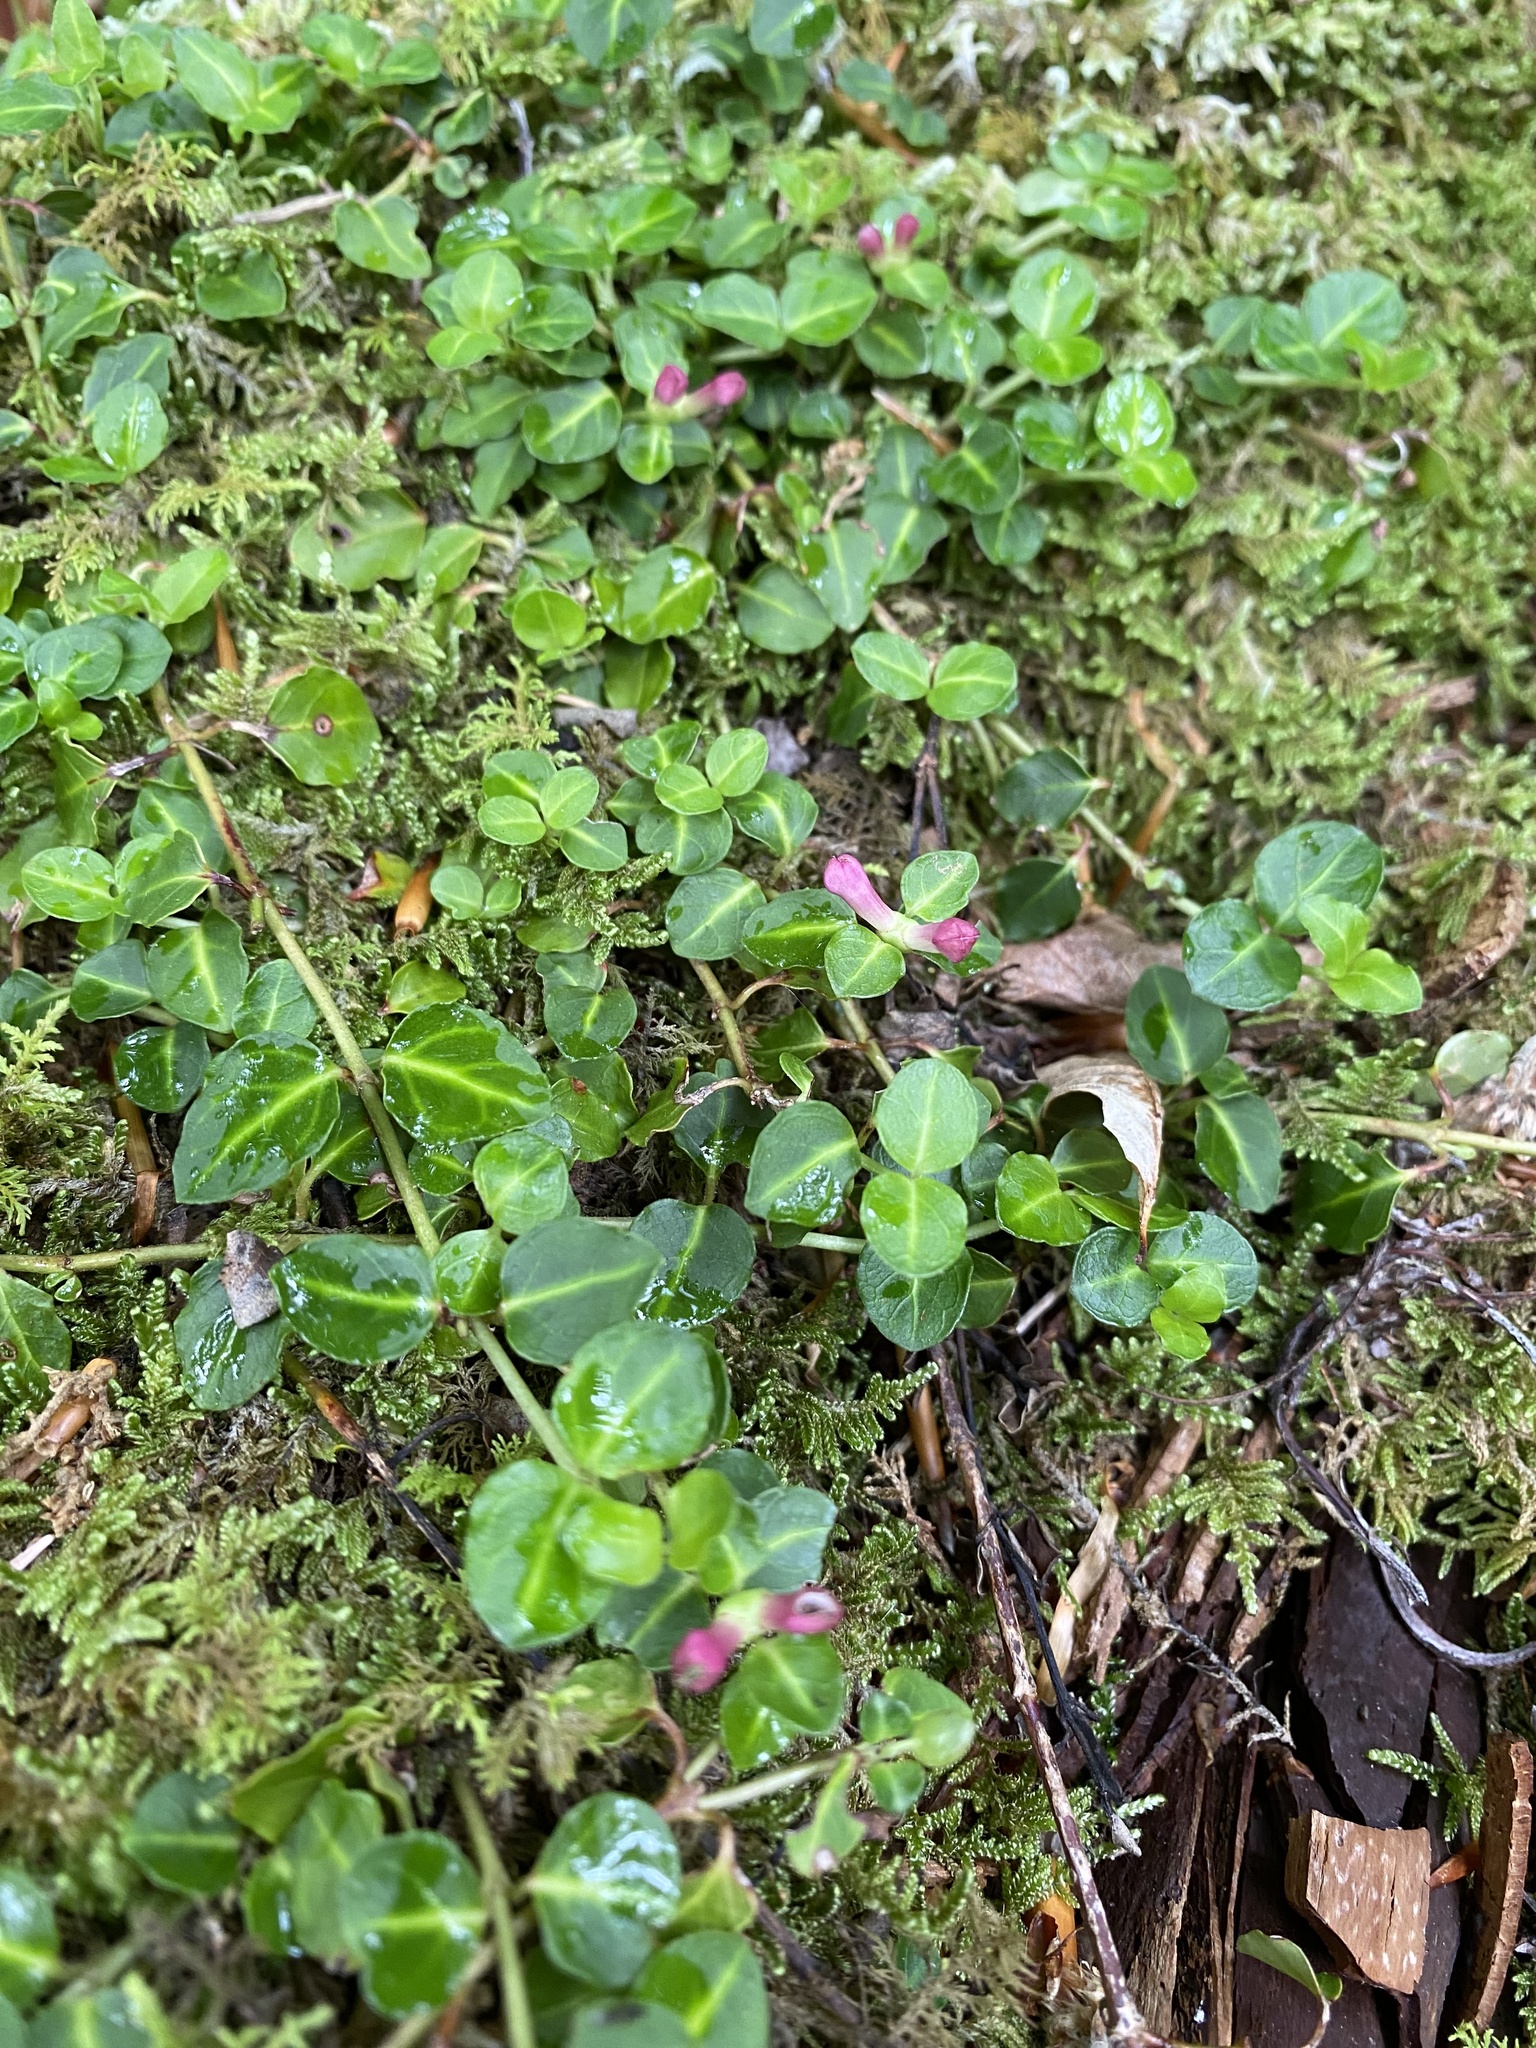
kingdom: Plantae
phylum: Tracheophyta
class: Magnoliopsida
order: Gentianales
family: Rubiaceae
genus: Mitchella
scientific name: Mitchella repens
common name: Partridge-berry
